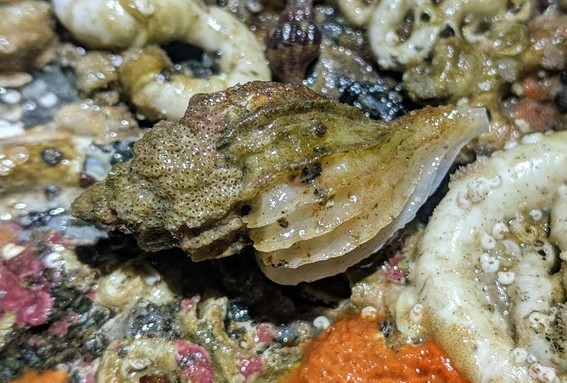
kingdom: Animalia
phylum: Mollusca
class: Gastropoda
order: Neogastropoda
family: Muricidae
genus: Scabrotrophon
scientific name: Scabrotrophon stuarti
